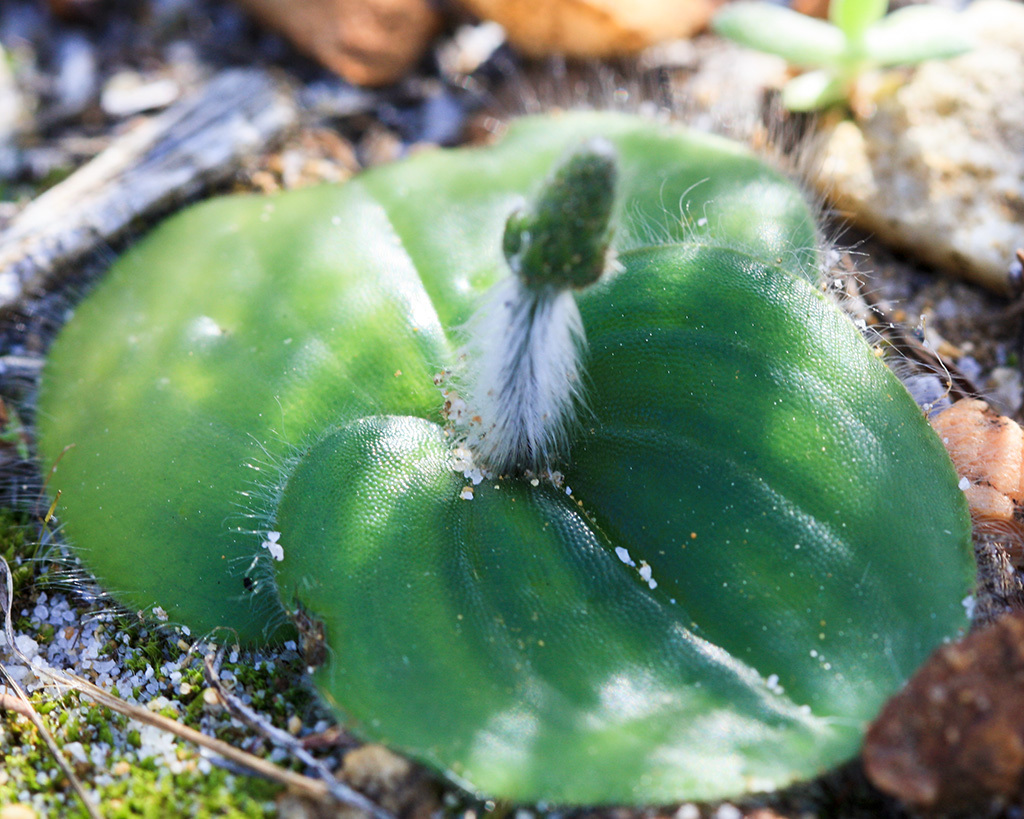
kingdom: Plantae
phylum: Tracheophyta
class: Liliopsida
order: Asparagales
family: Orchidaceae
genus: Holothrix
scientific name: Holothrix villosa
